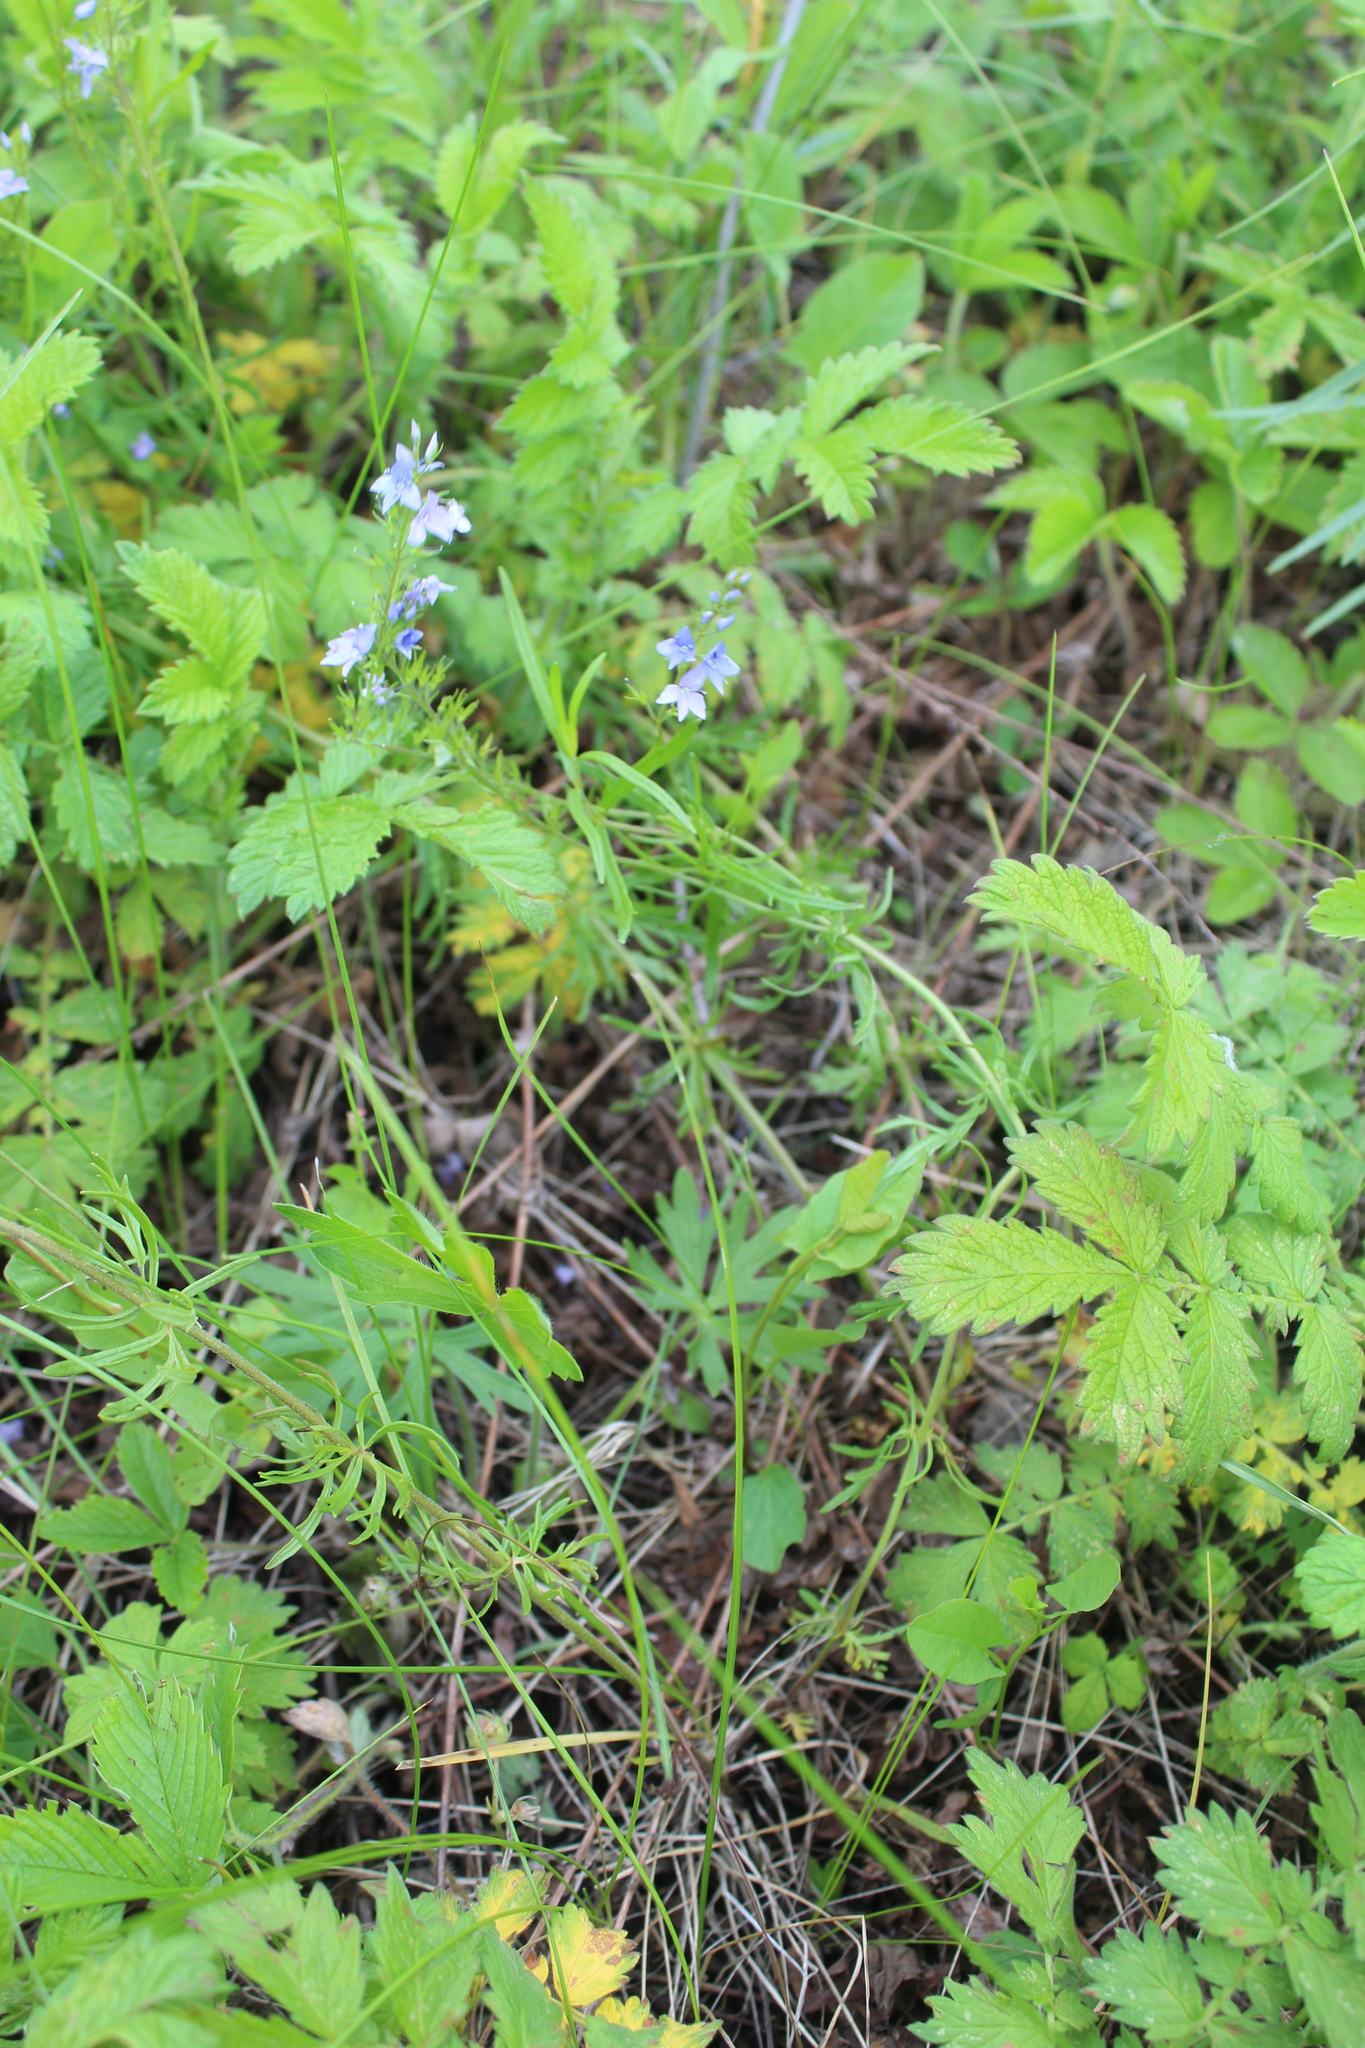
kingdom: Plantae
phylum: Tracheophyta
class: Magnoliopsida
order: Lamiales
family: Plantaginaceae
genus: Veronica
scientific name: Veronica austriaca
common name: Large speedwell
